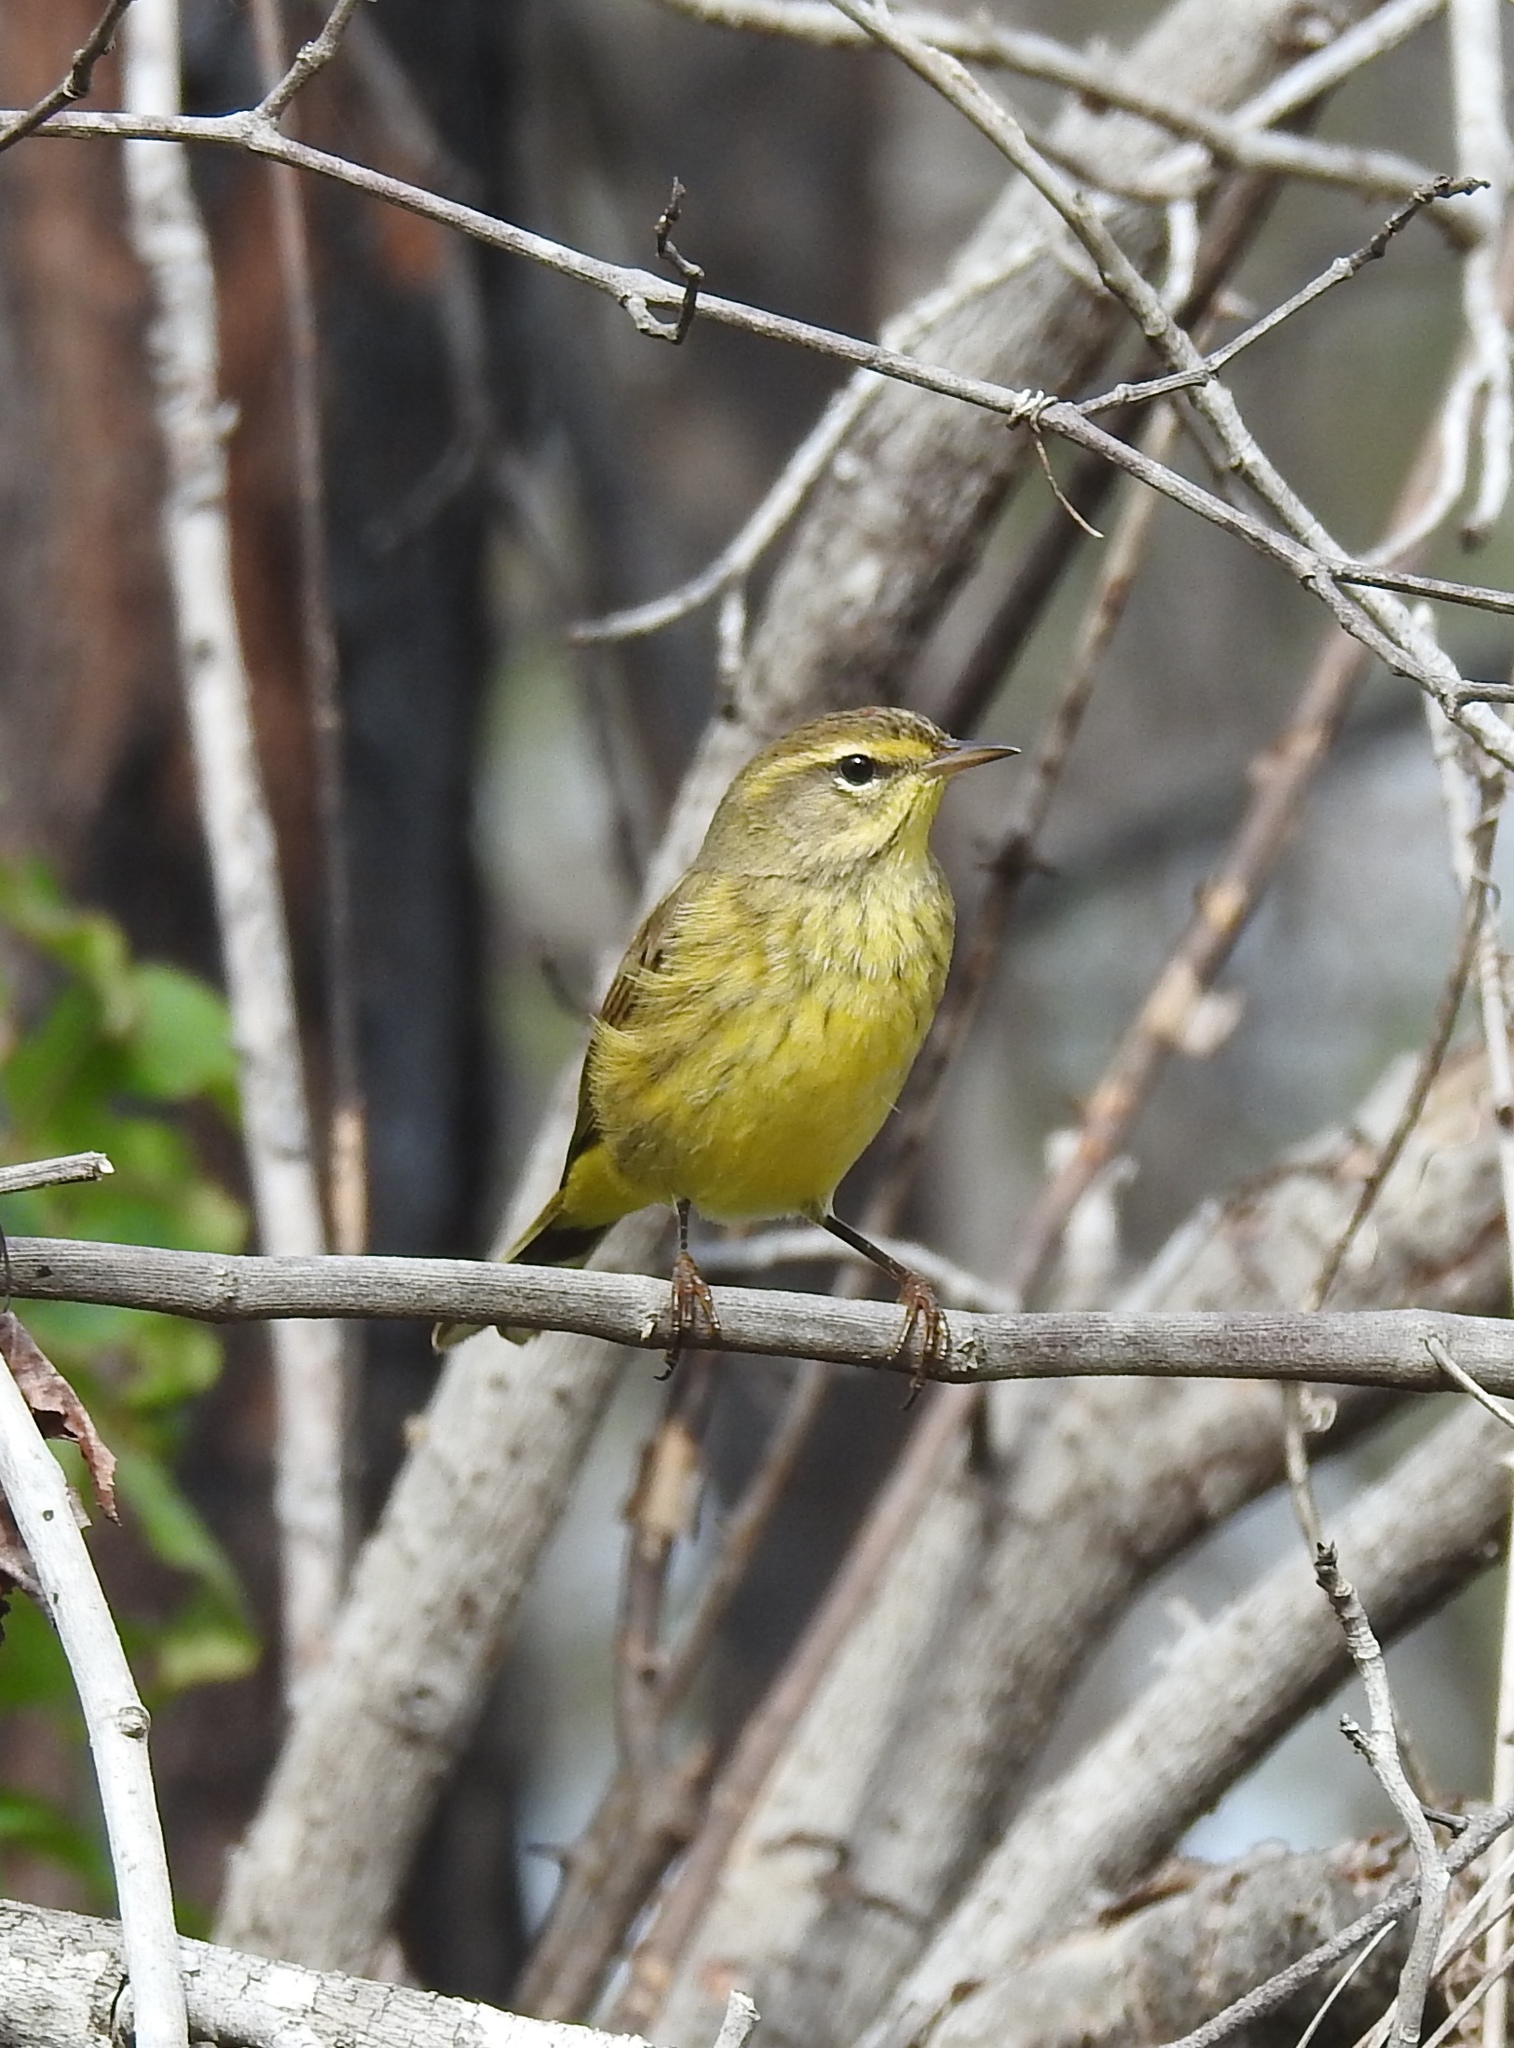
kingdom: Animalia
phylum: Chordata
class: Aves
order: Passeriformes
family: Parulidae
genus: Setophaga
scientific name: Setophaga palmarum
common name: Palm warbler
